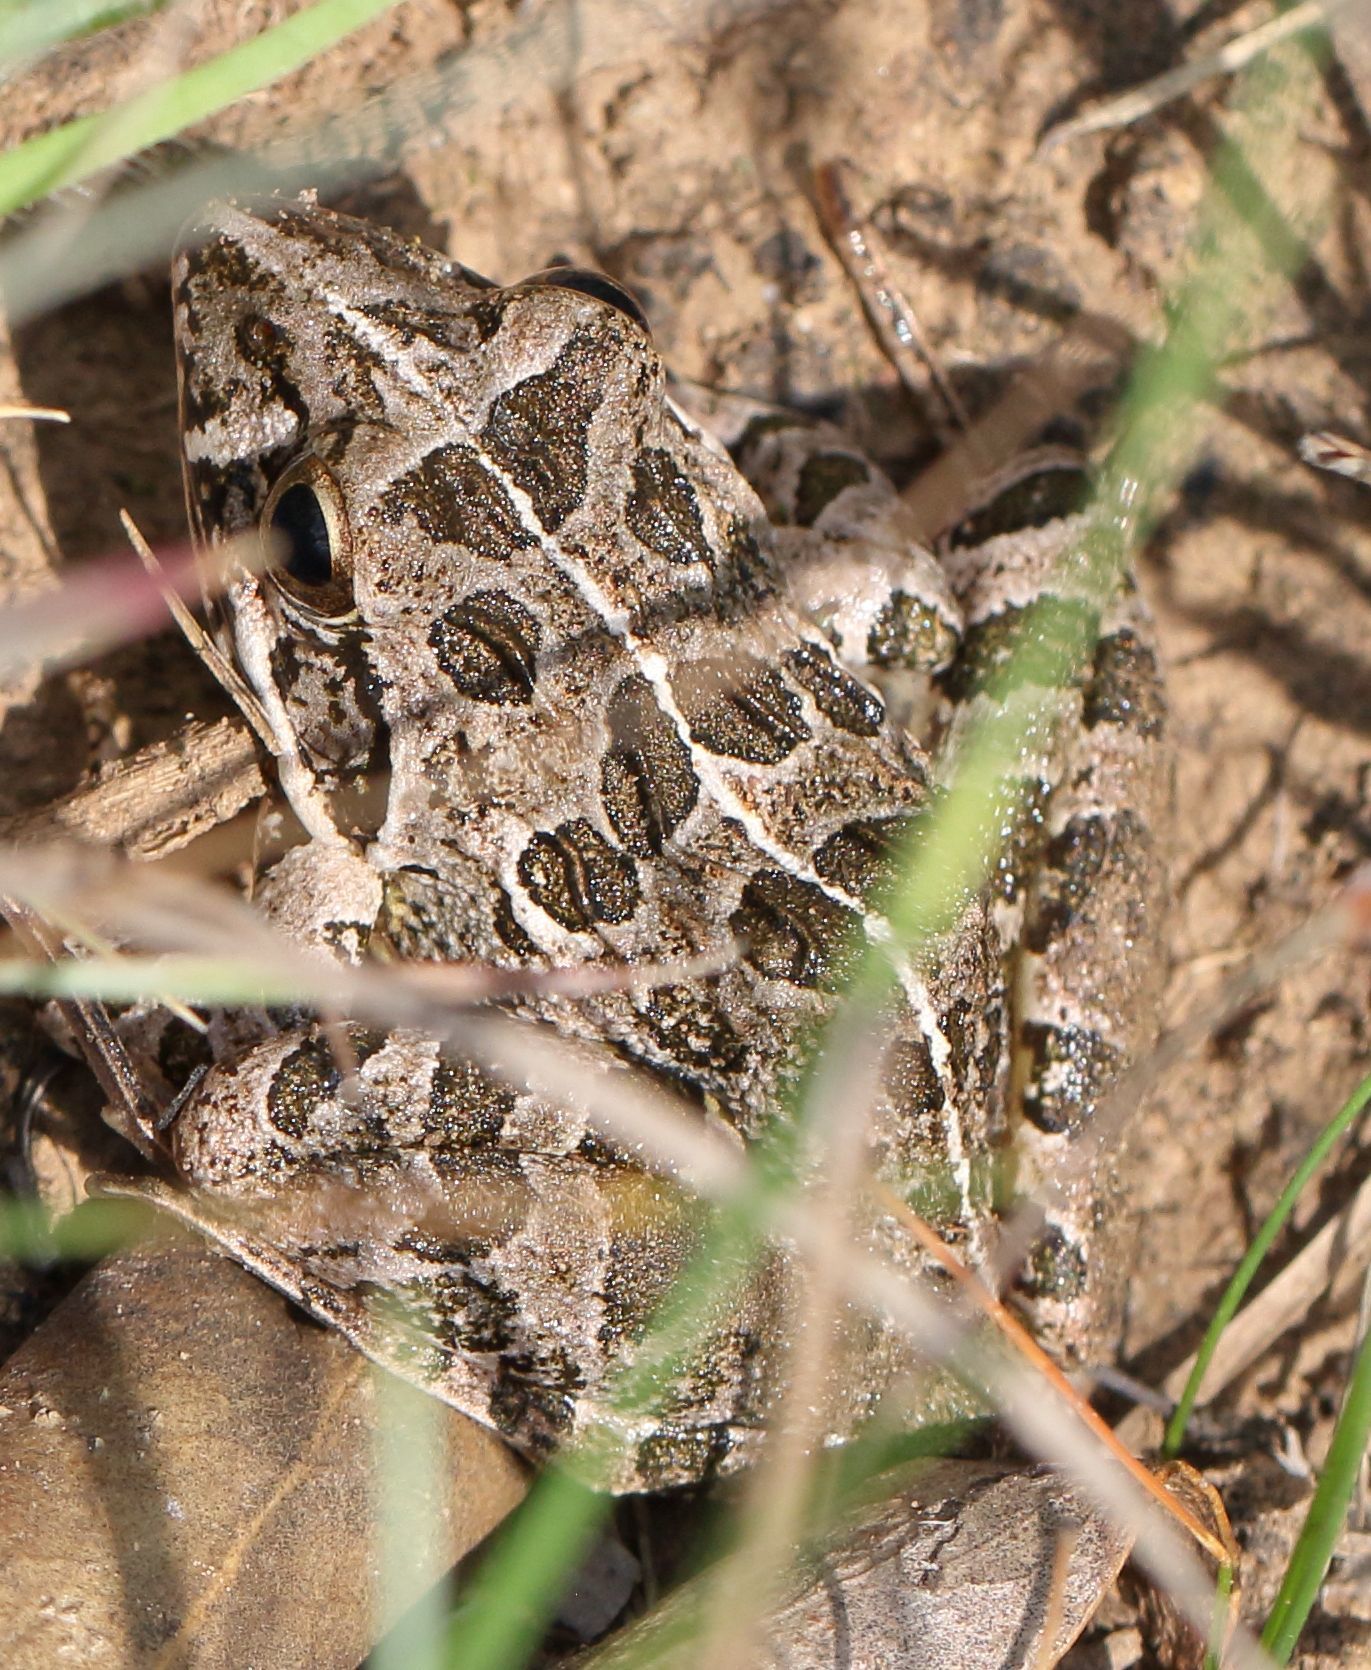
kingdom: Animalia
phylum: Chordata
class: Amphibia
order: Anura
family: Pyxicephalidae
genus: Strongylopus
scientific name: Strongylopus grayii
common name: Gray's stream frog
